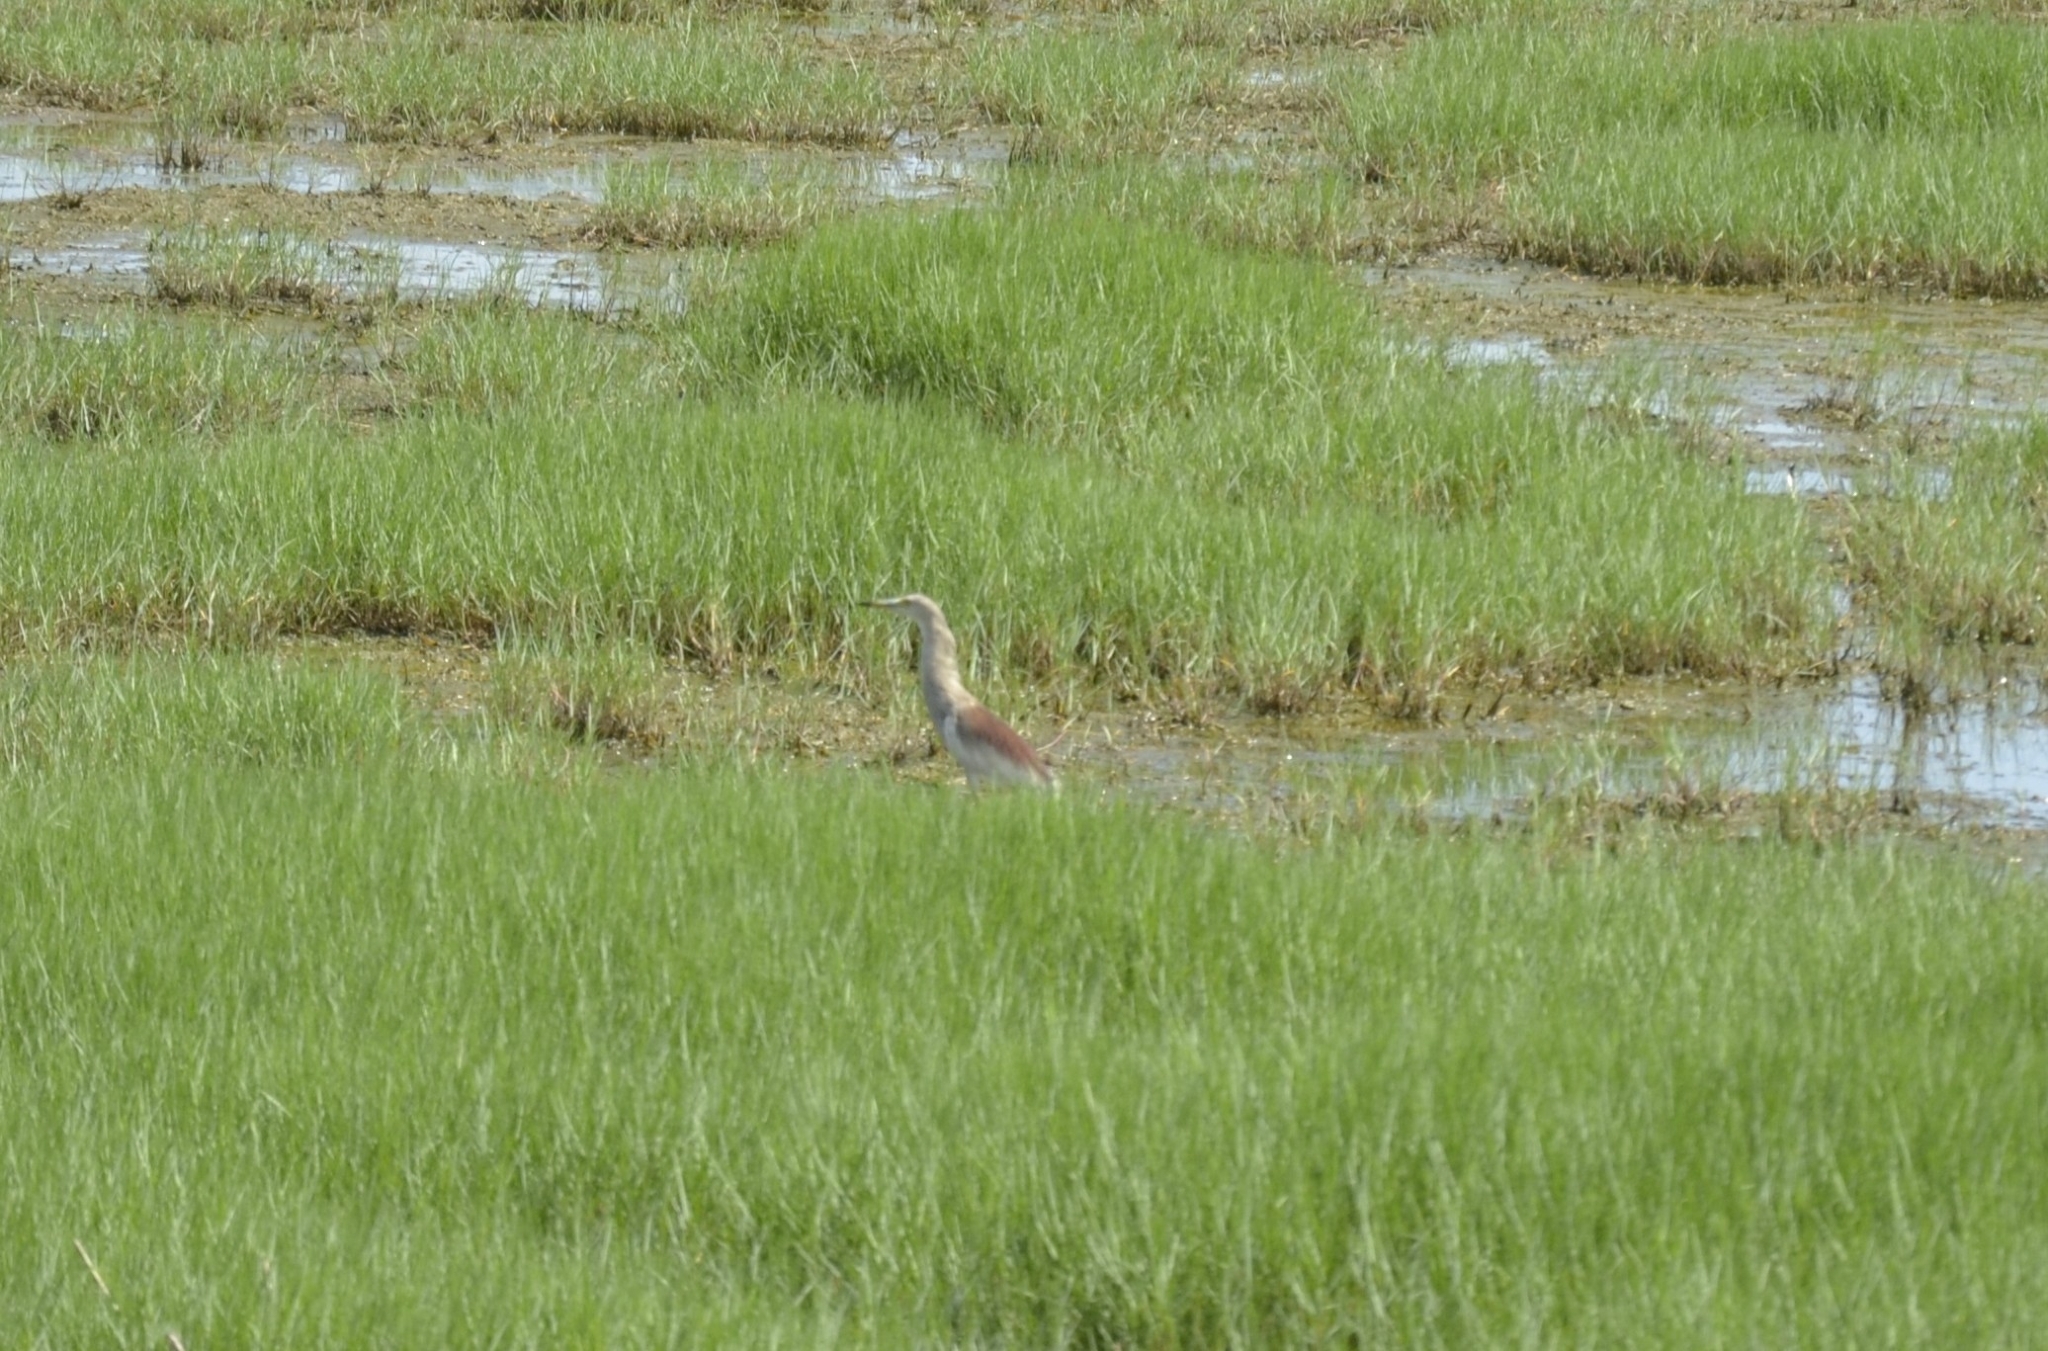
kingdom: Animalia
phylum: Chordata
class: Aves
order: Pelecaniformes
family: Ardeidae
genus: Ardeola
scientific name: Ardeola grayii
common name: Indian pond heron
